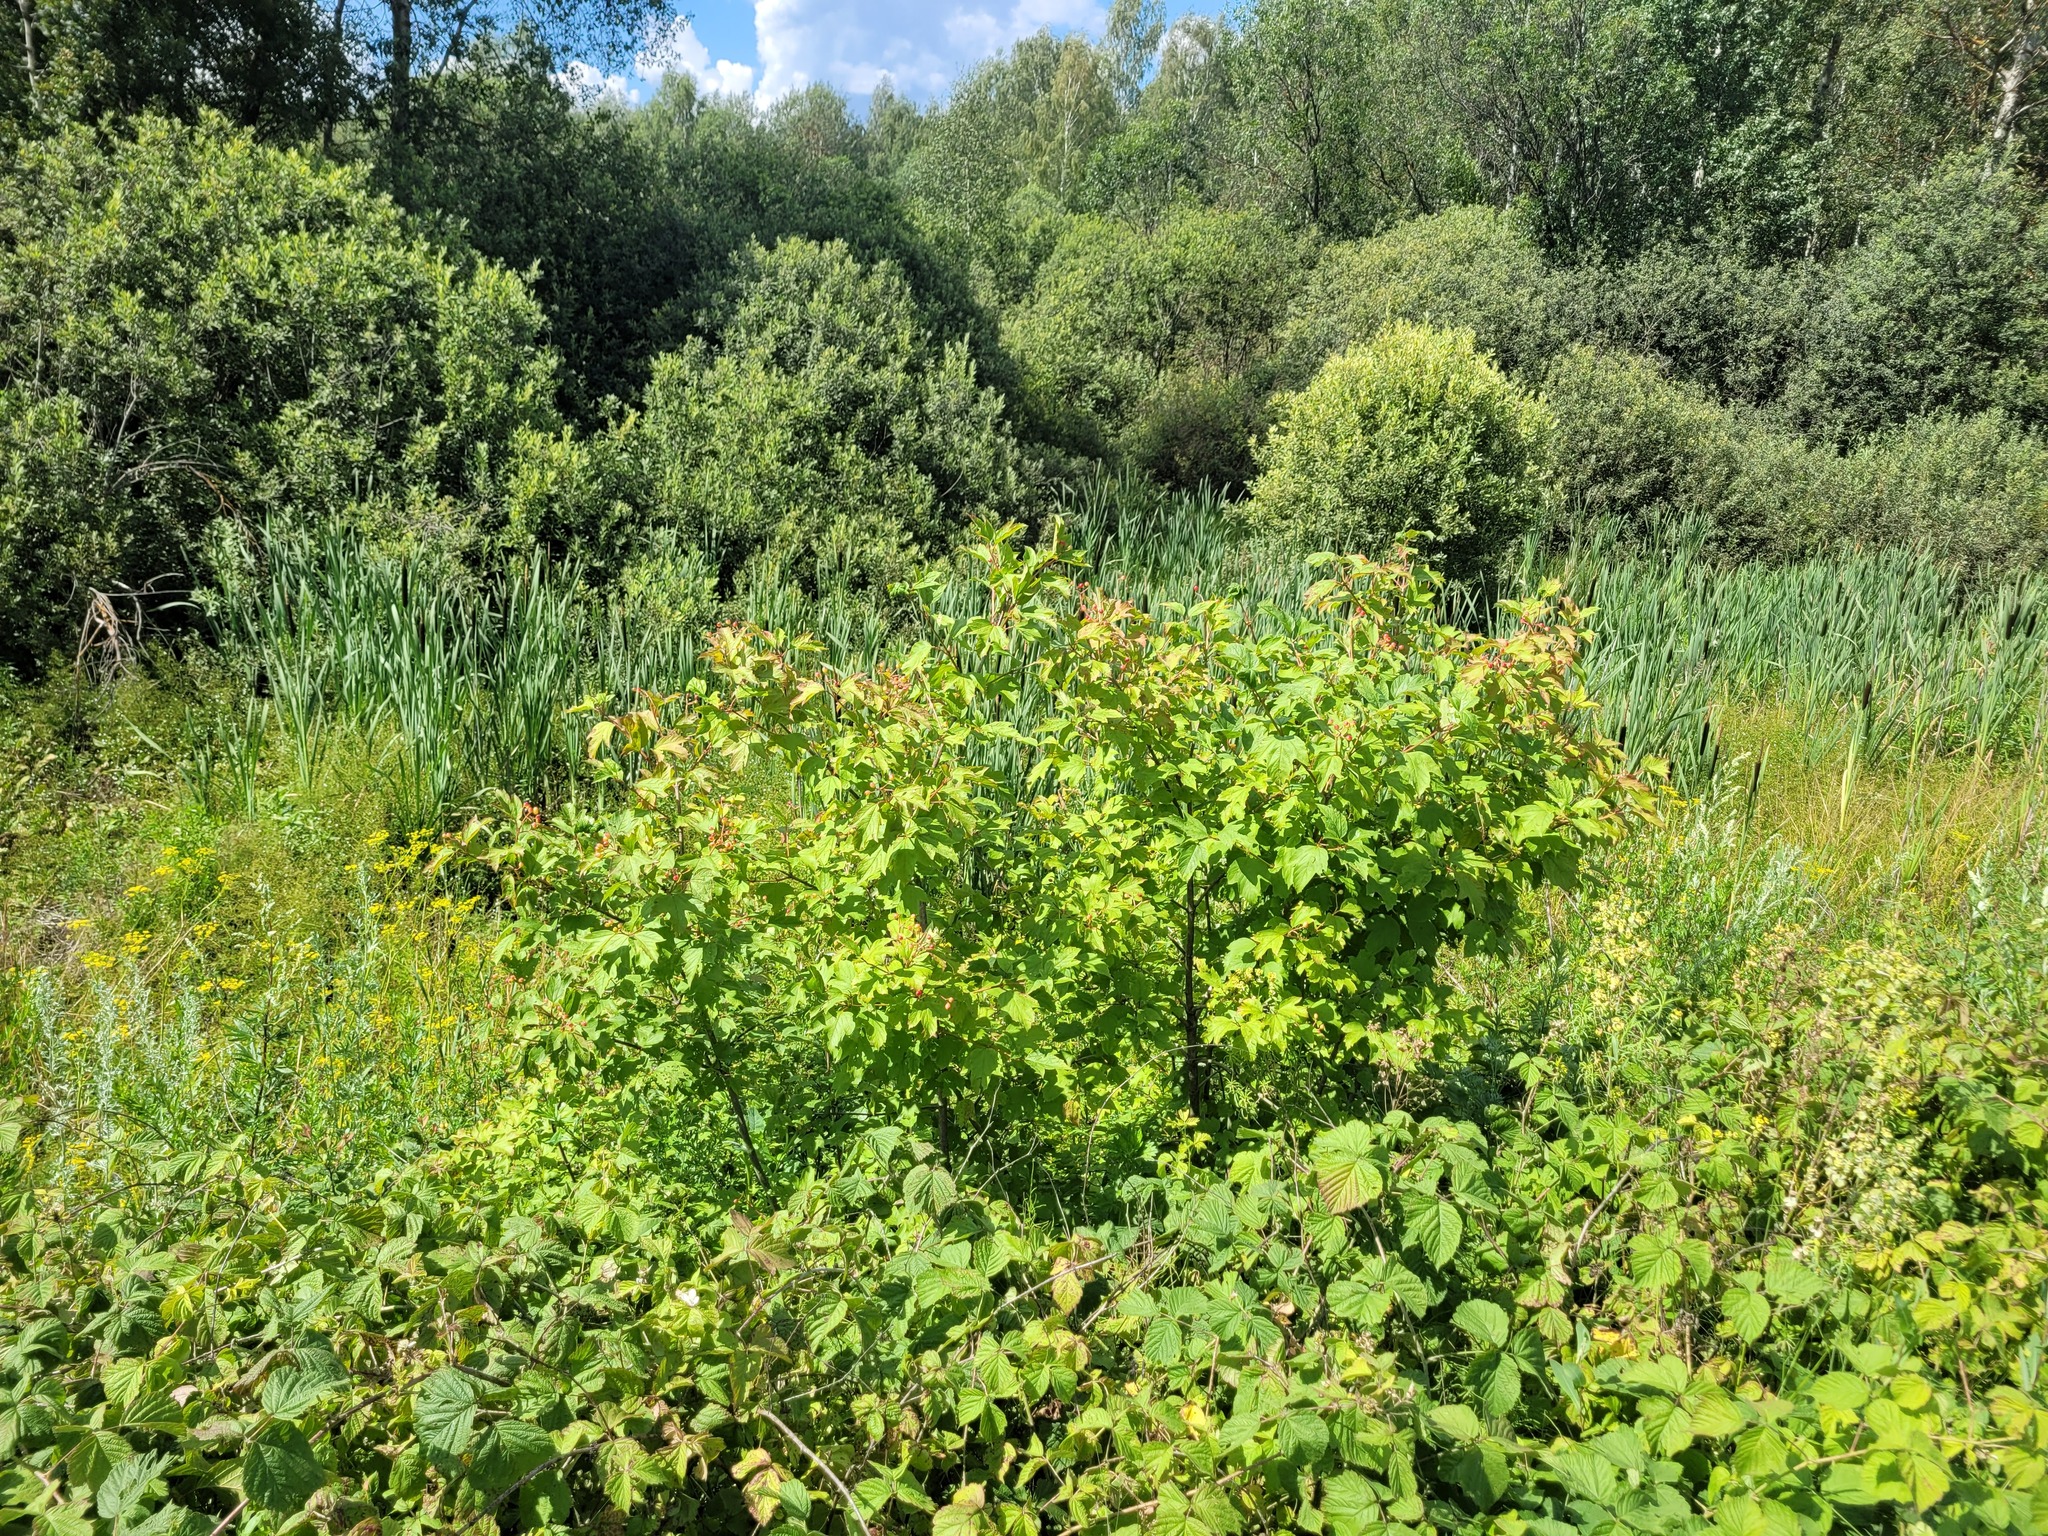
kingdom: Plantae
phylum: Tracheophyta
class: Magnoliopsida
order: Dipsacales
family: Viburnaceae
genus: Viburnum
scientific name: Viburnum opulus
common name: Guelder-rose
